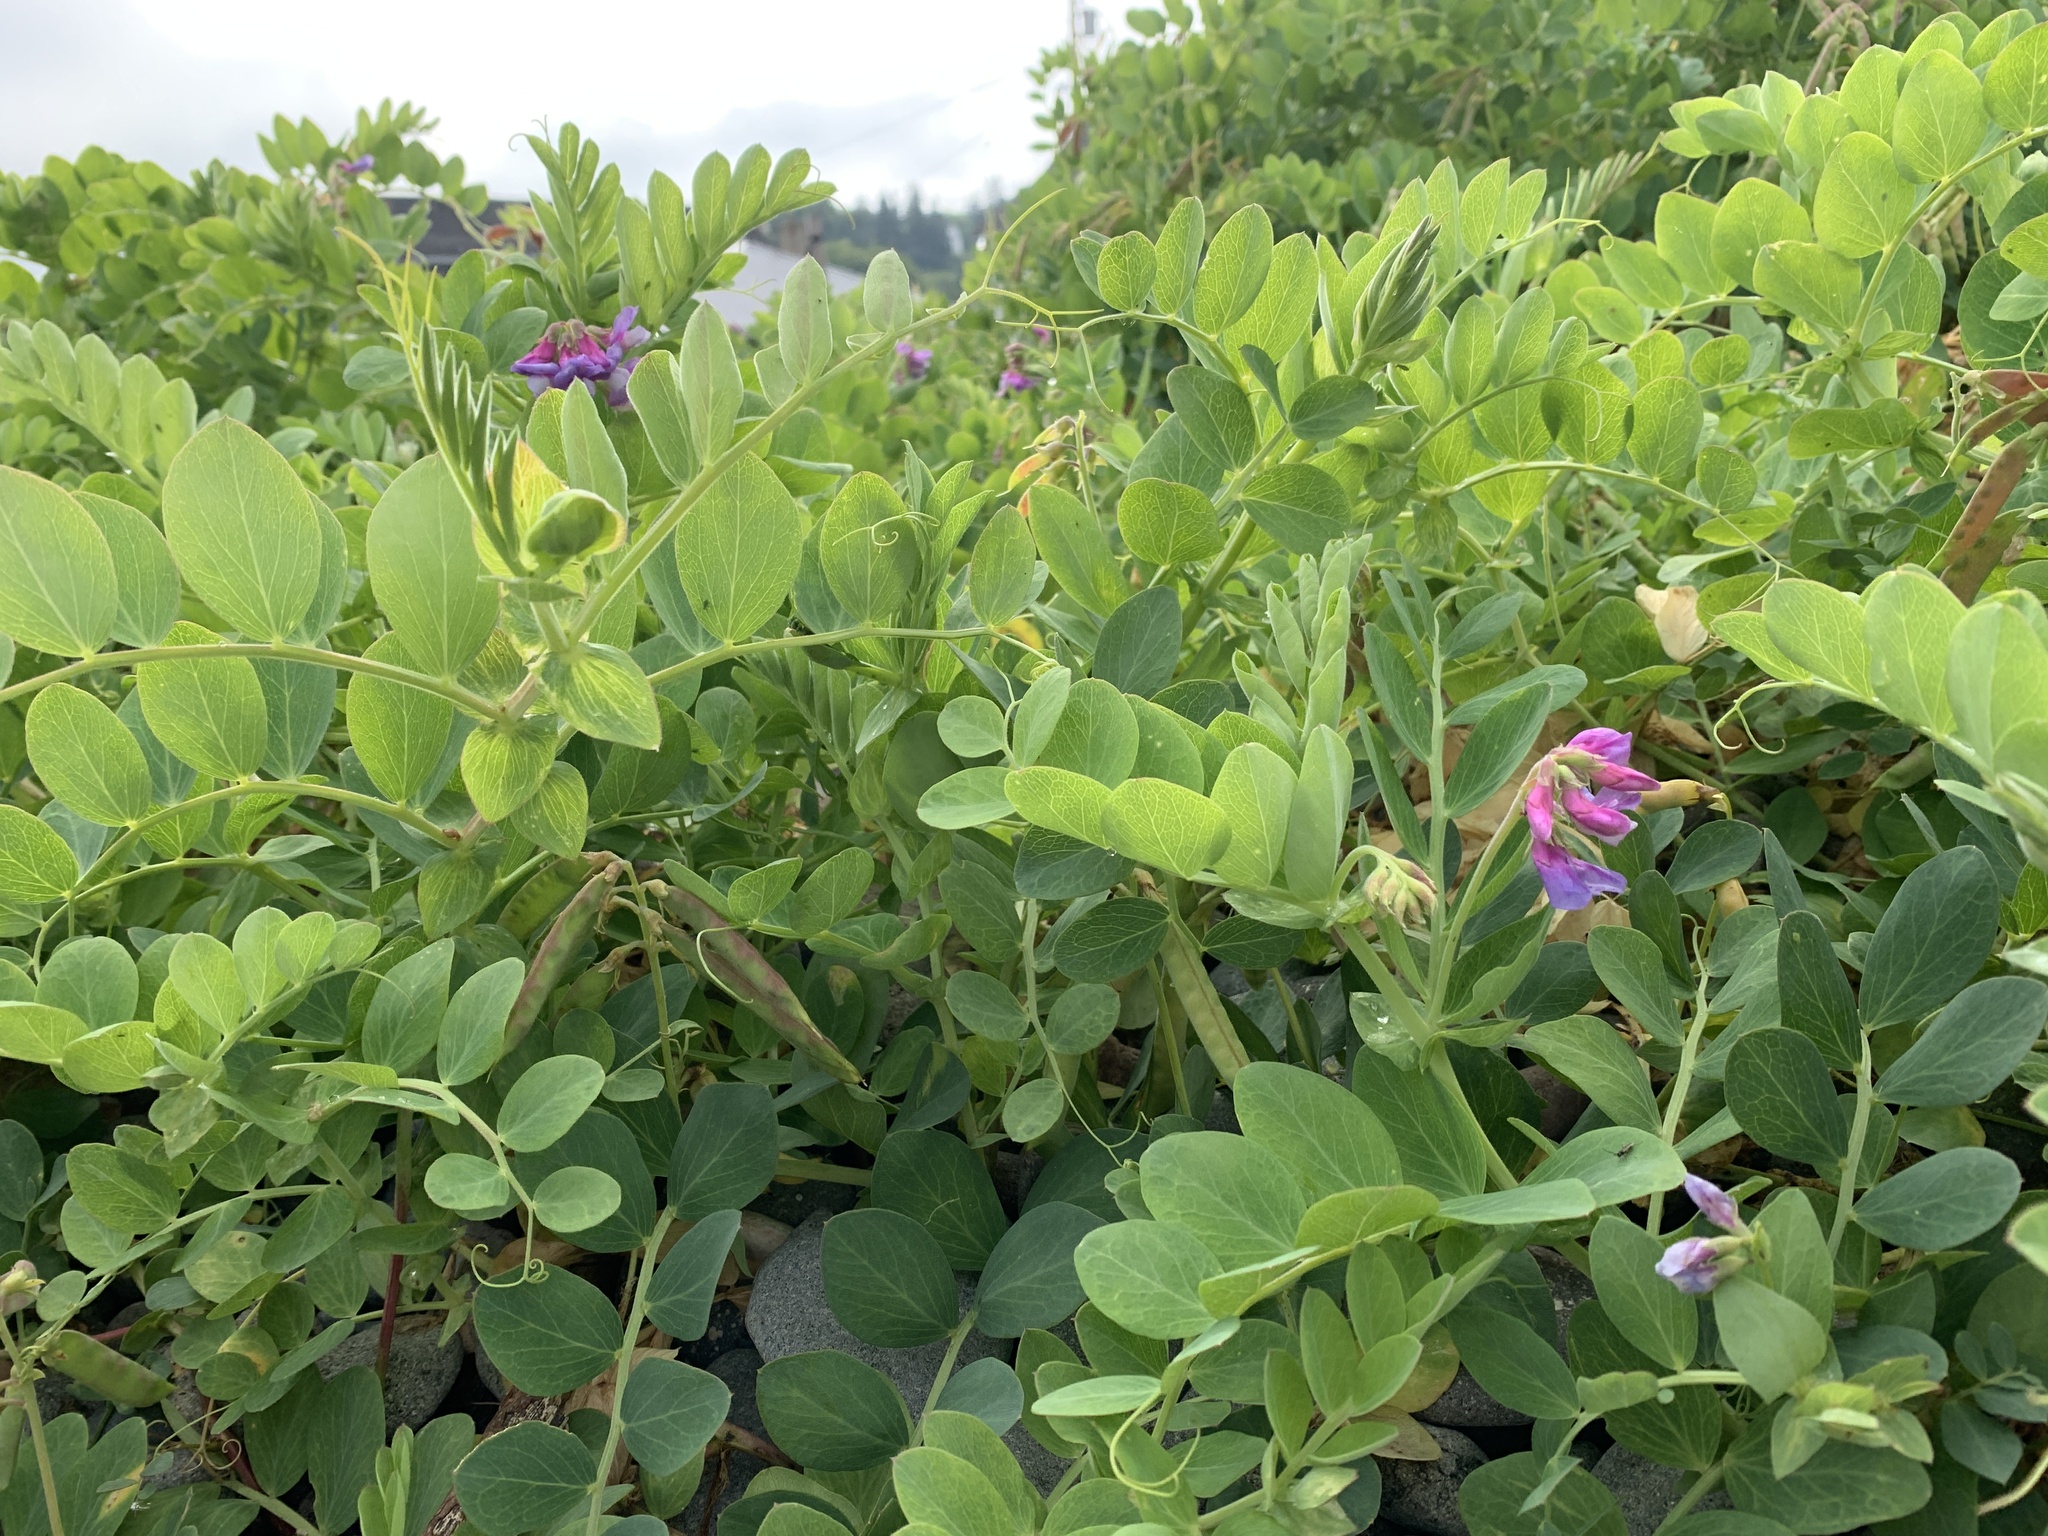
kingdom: Plantae
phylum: Tracheophyta
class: Magnoliopsida
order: Fabales
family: Fabaceae
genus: Lathyrus
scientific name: Lathyrus japonicus
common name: Sea pea
